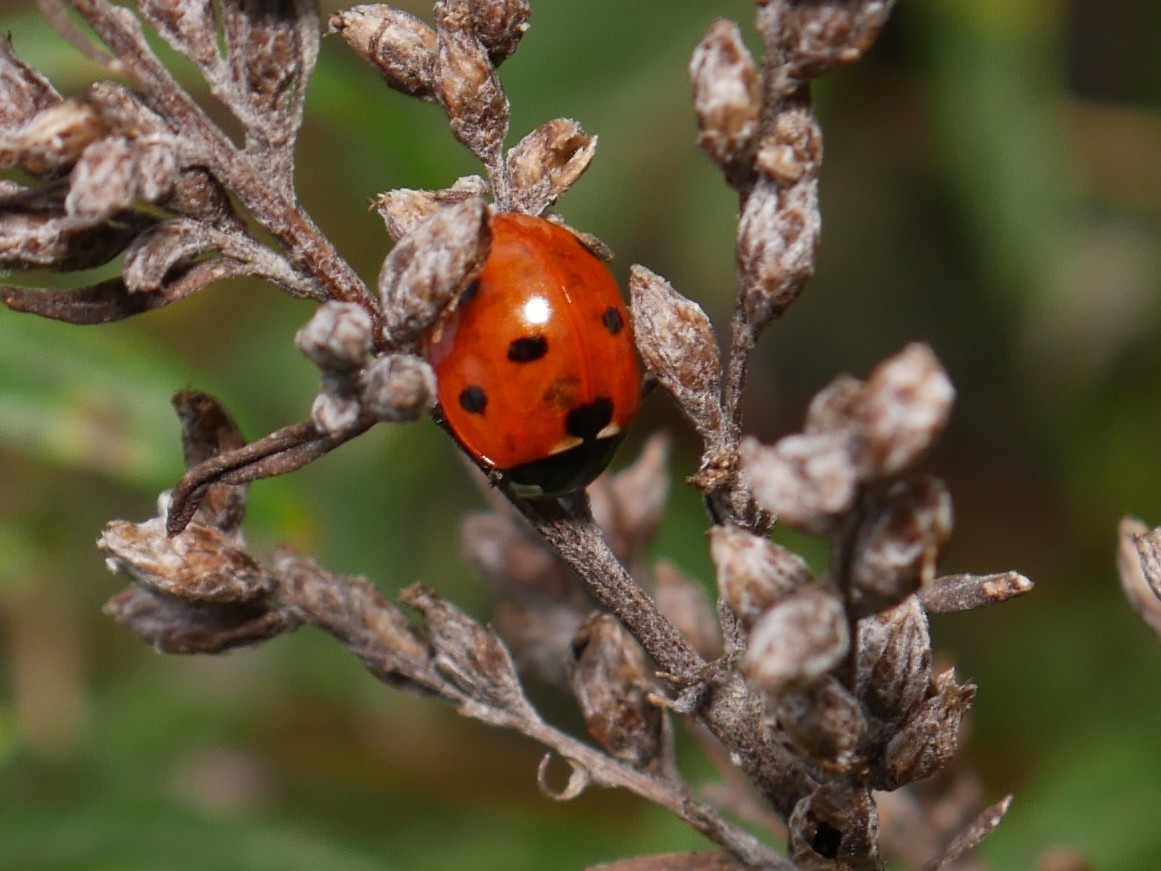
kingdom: Animalia
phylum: Arthropoda
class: Insecta
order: Coleoptera
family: Coccinellidae
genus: Coccinella
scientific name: Coccinella septempunctata
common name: Sevenspotted lady beetle
